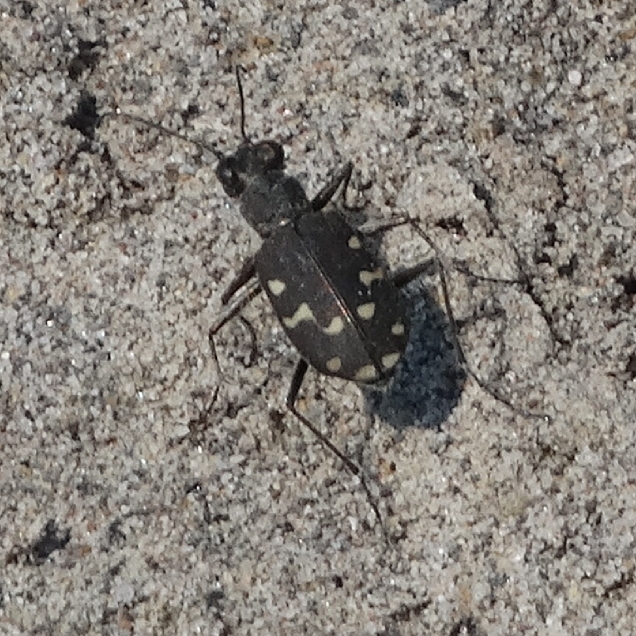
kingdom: Animalia
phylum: Arthropoda
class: Insecta
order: Coleoptera
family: Carabidae
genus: Cicindela
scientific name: Cicindela oregona
